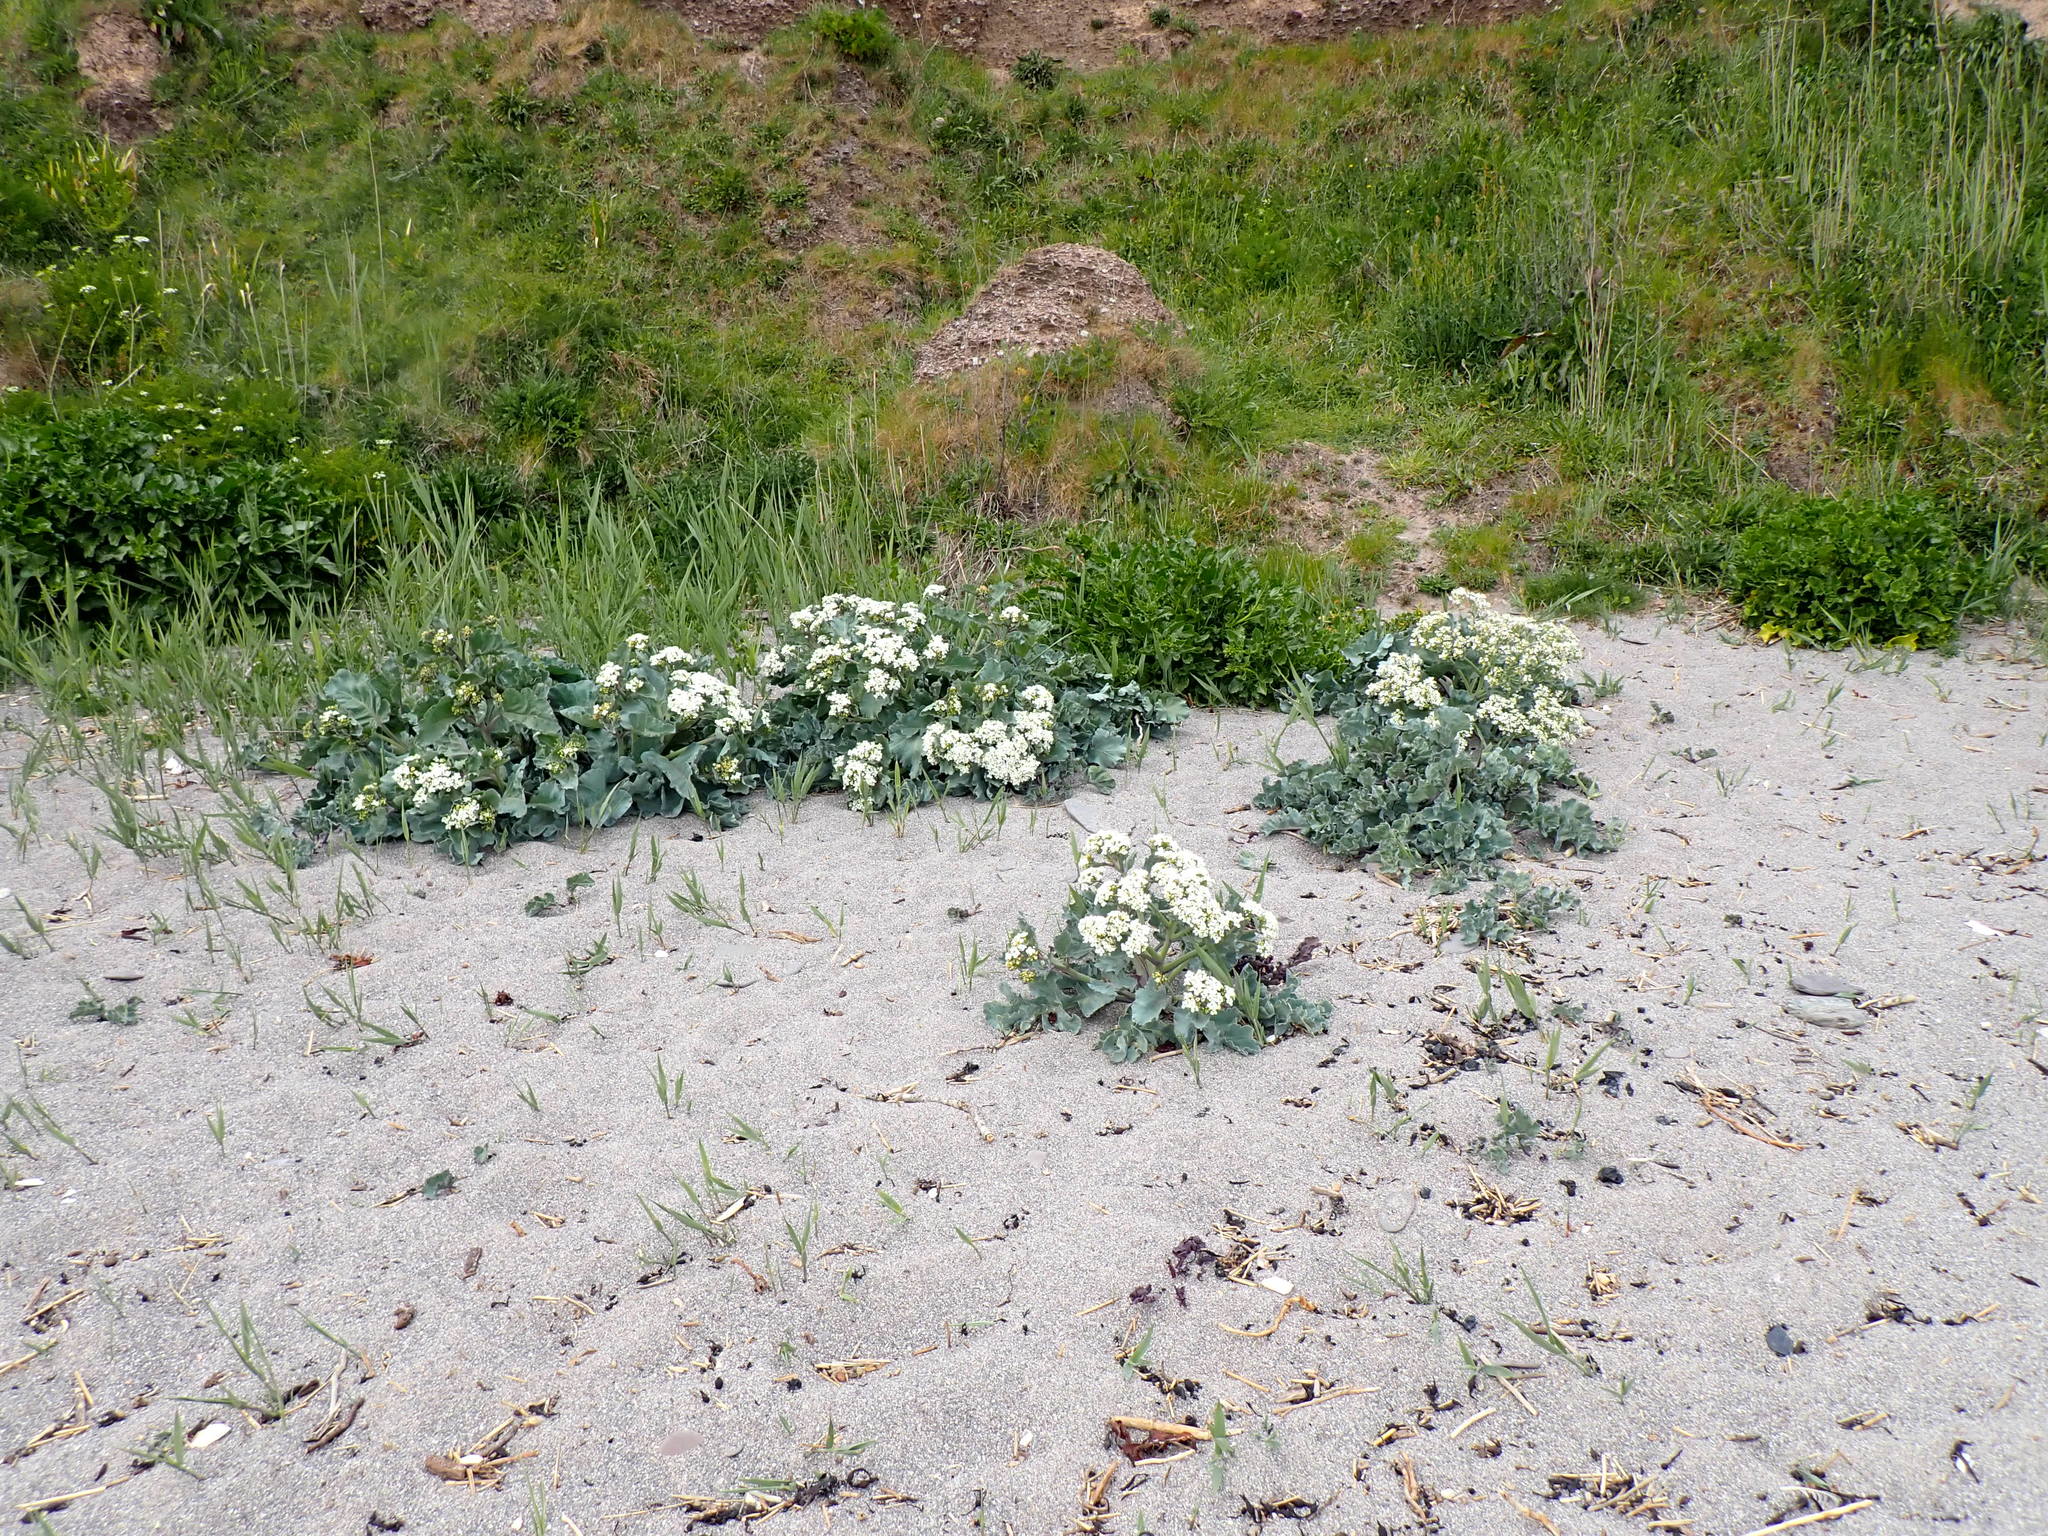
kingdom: Plantae
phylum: Tracheophyta
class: Magnoliopsida
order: Brassicales
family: Brassicaceae
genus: Crambe
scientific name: Crambe maritima
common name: Sea-kale
